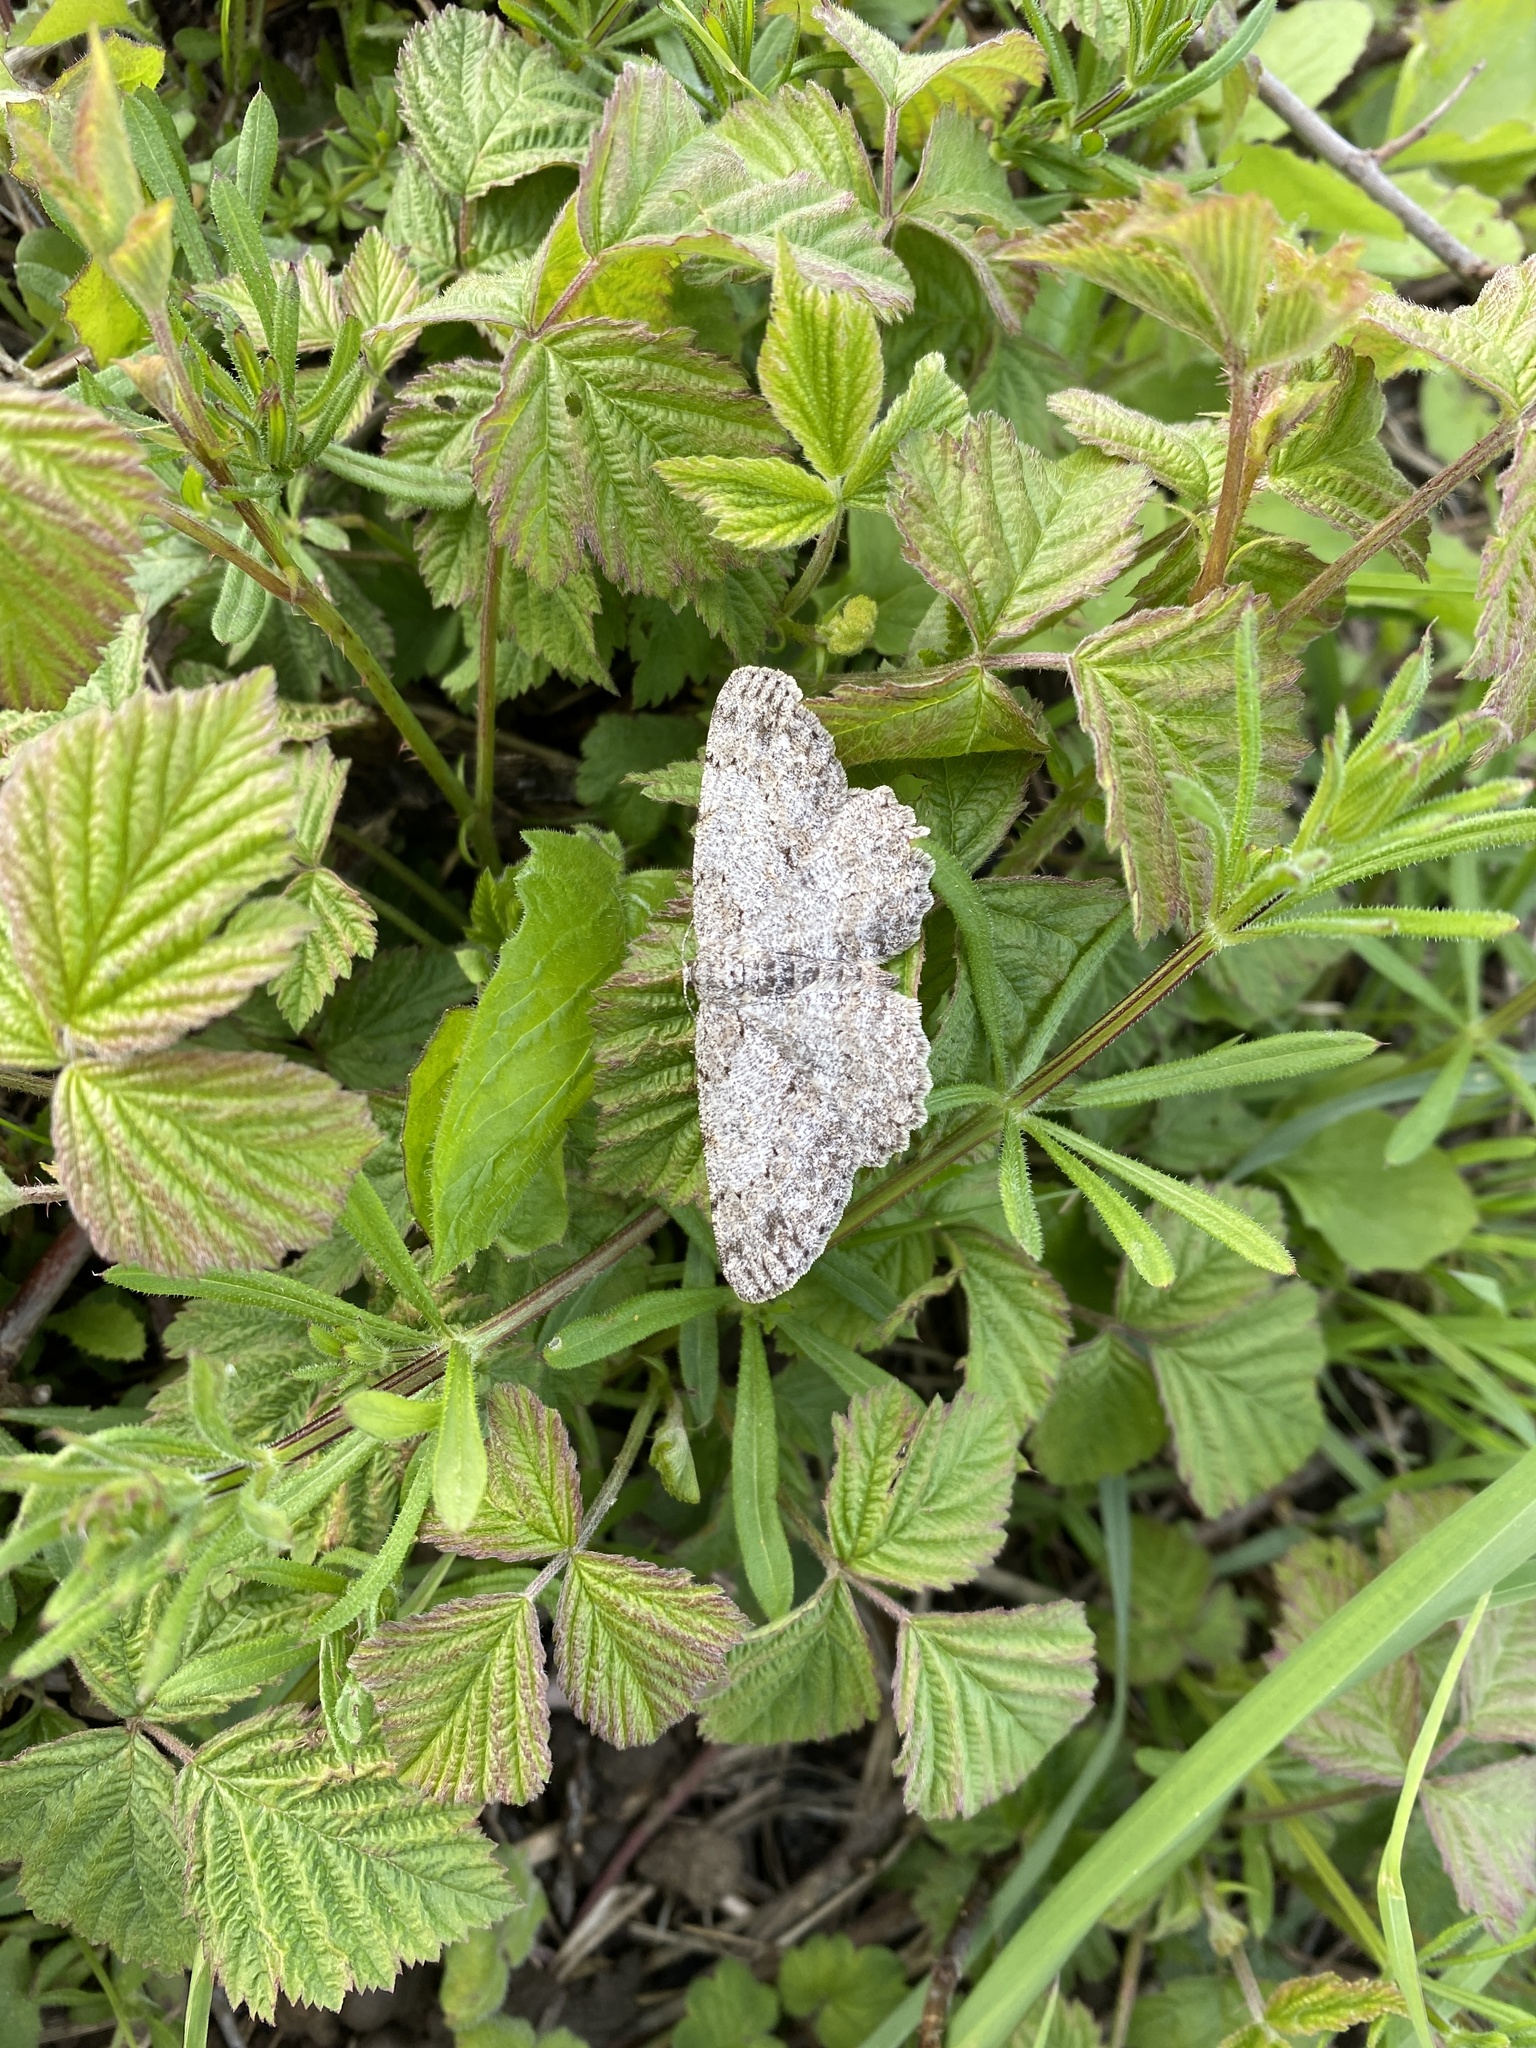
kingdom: Animalia
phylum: Arthropoda
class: Insecta
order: Lepidoptera
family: Geometridae
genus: Hypomecis
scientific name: Hypomecis punctinalis
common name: Pale oak beauty
